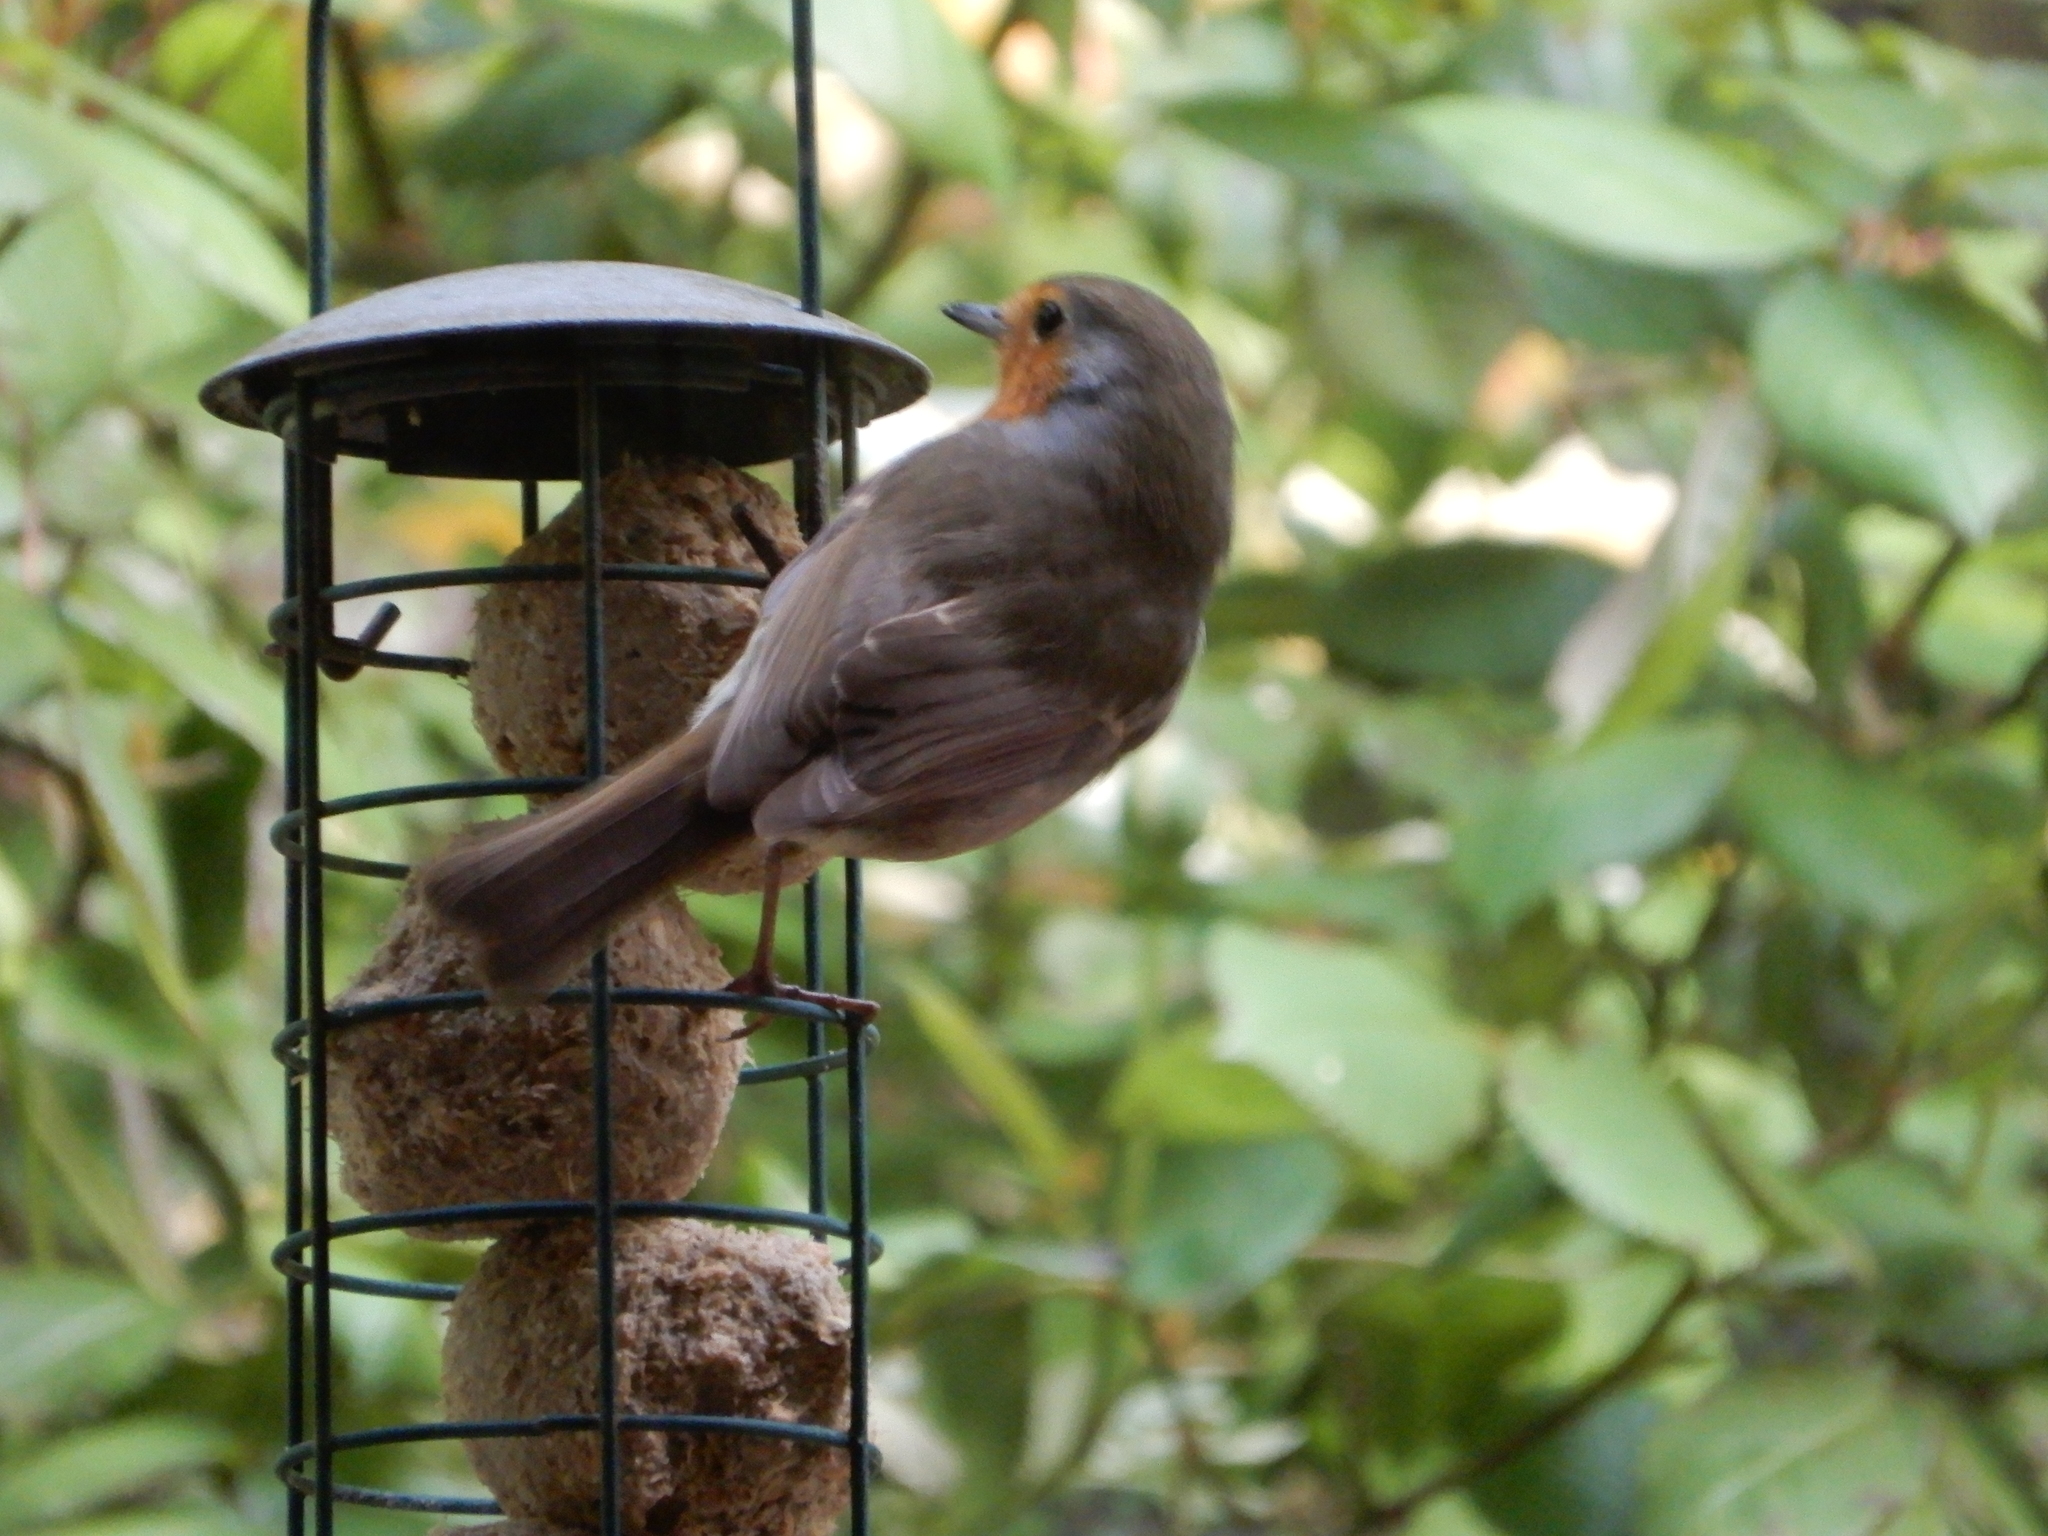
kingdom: Animalia
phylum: Chordata
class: Aves
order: Passeriformes
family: Muscicapidae
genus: Erithacus
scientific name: Erithacus rubecula
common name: European robin
